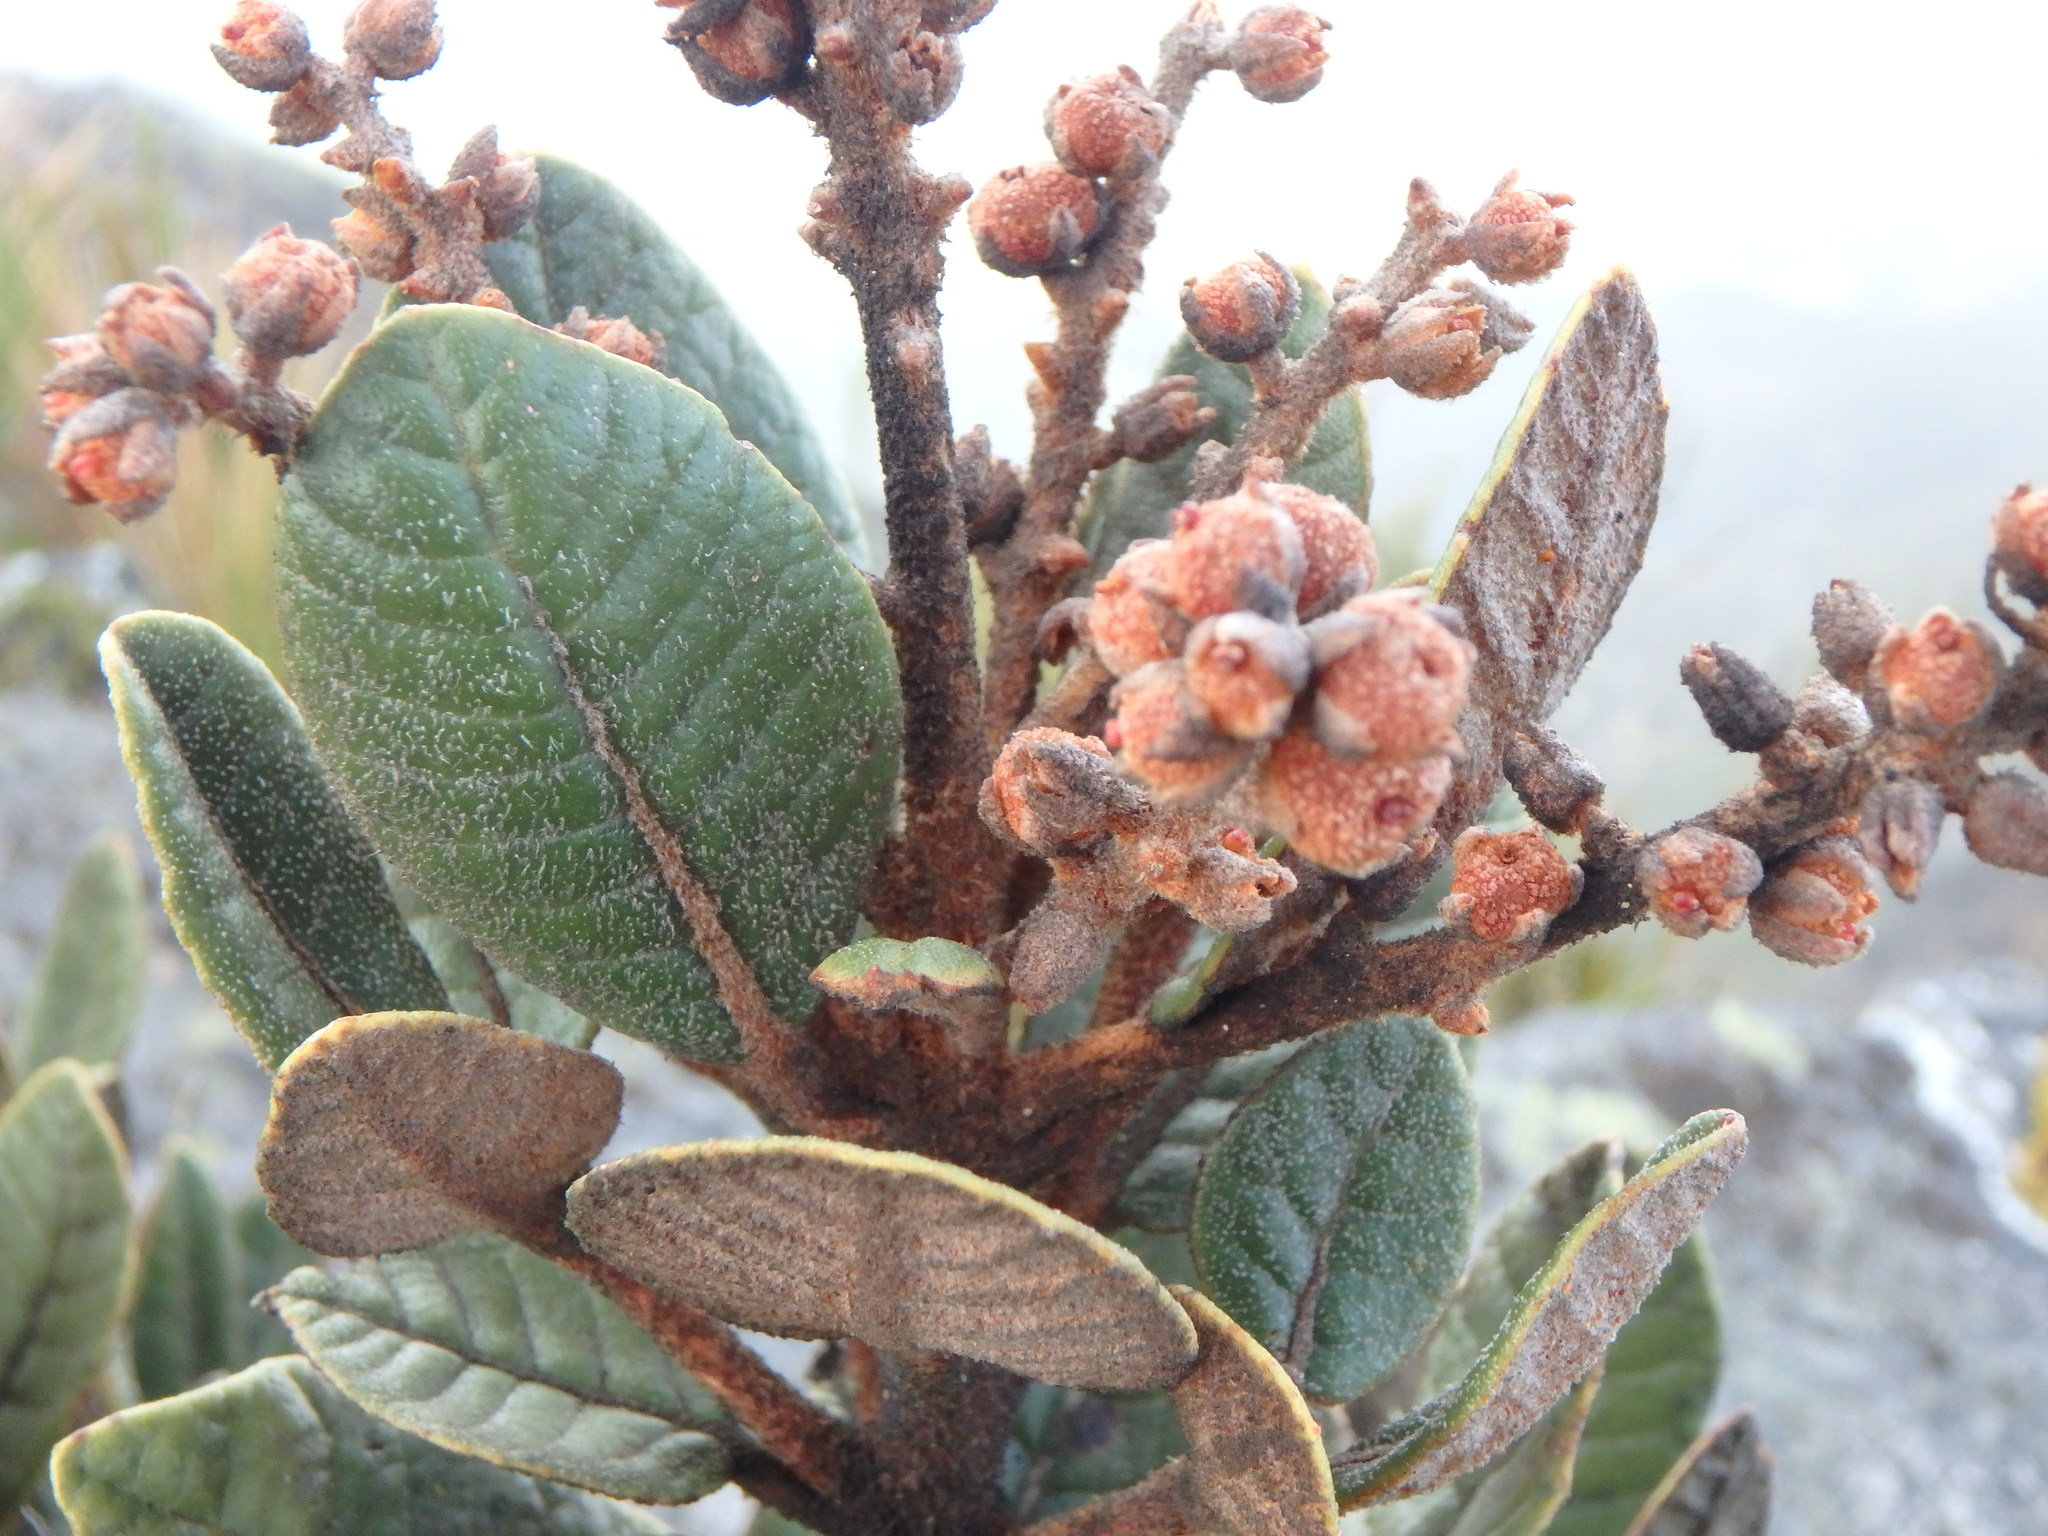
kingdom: Plantae
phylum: Tracheophyta
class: Magnoliopsida
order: Ericales
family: Clethraceae
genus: Clethra
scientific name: Clethra fimbriata
